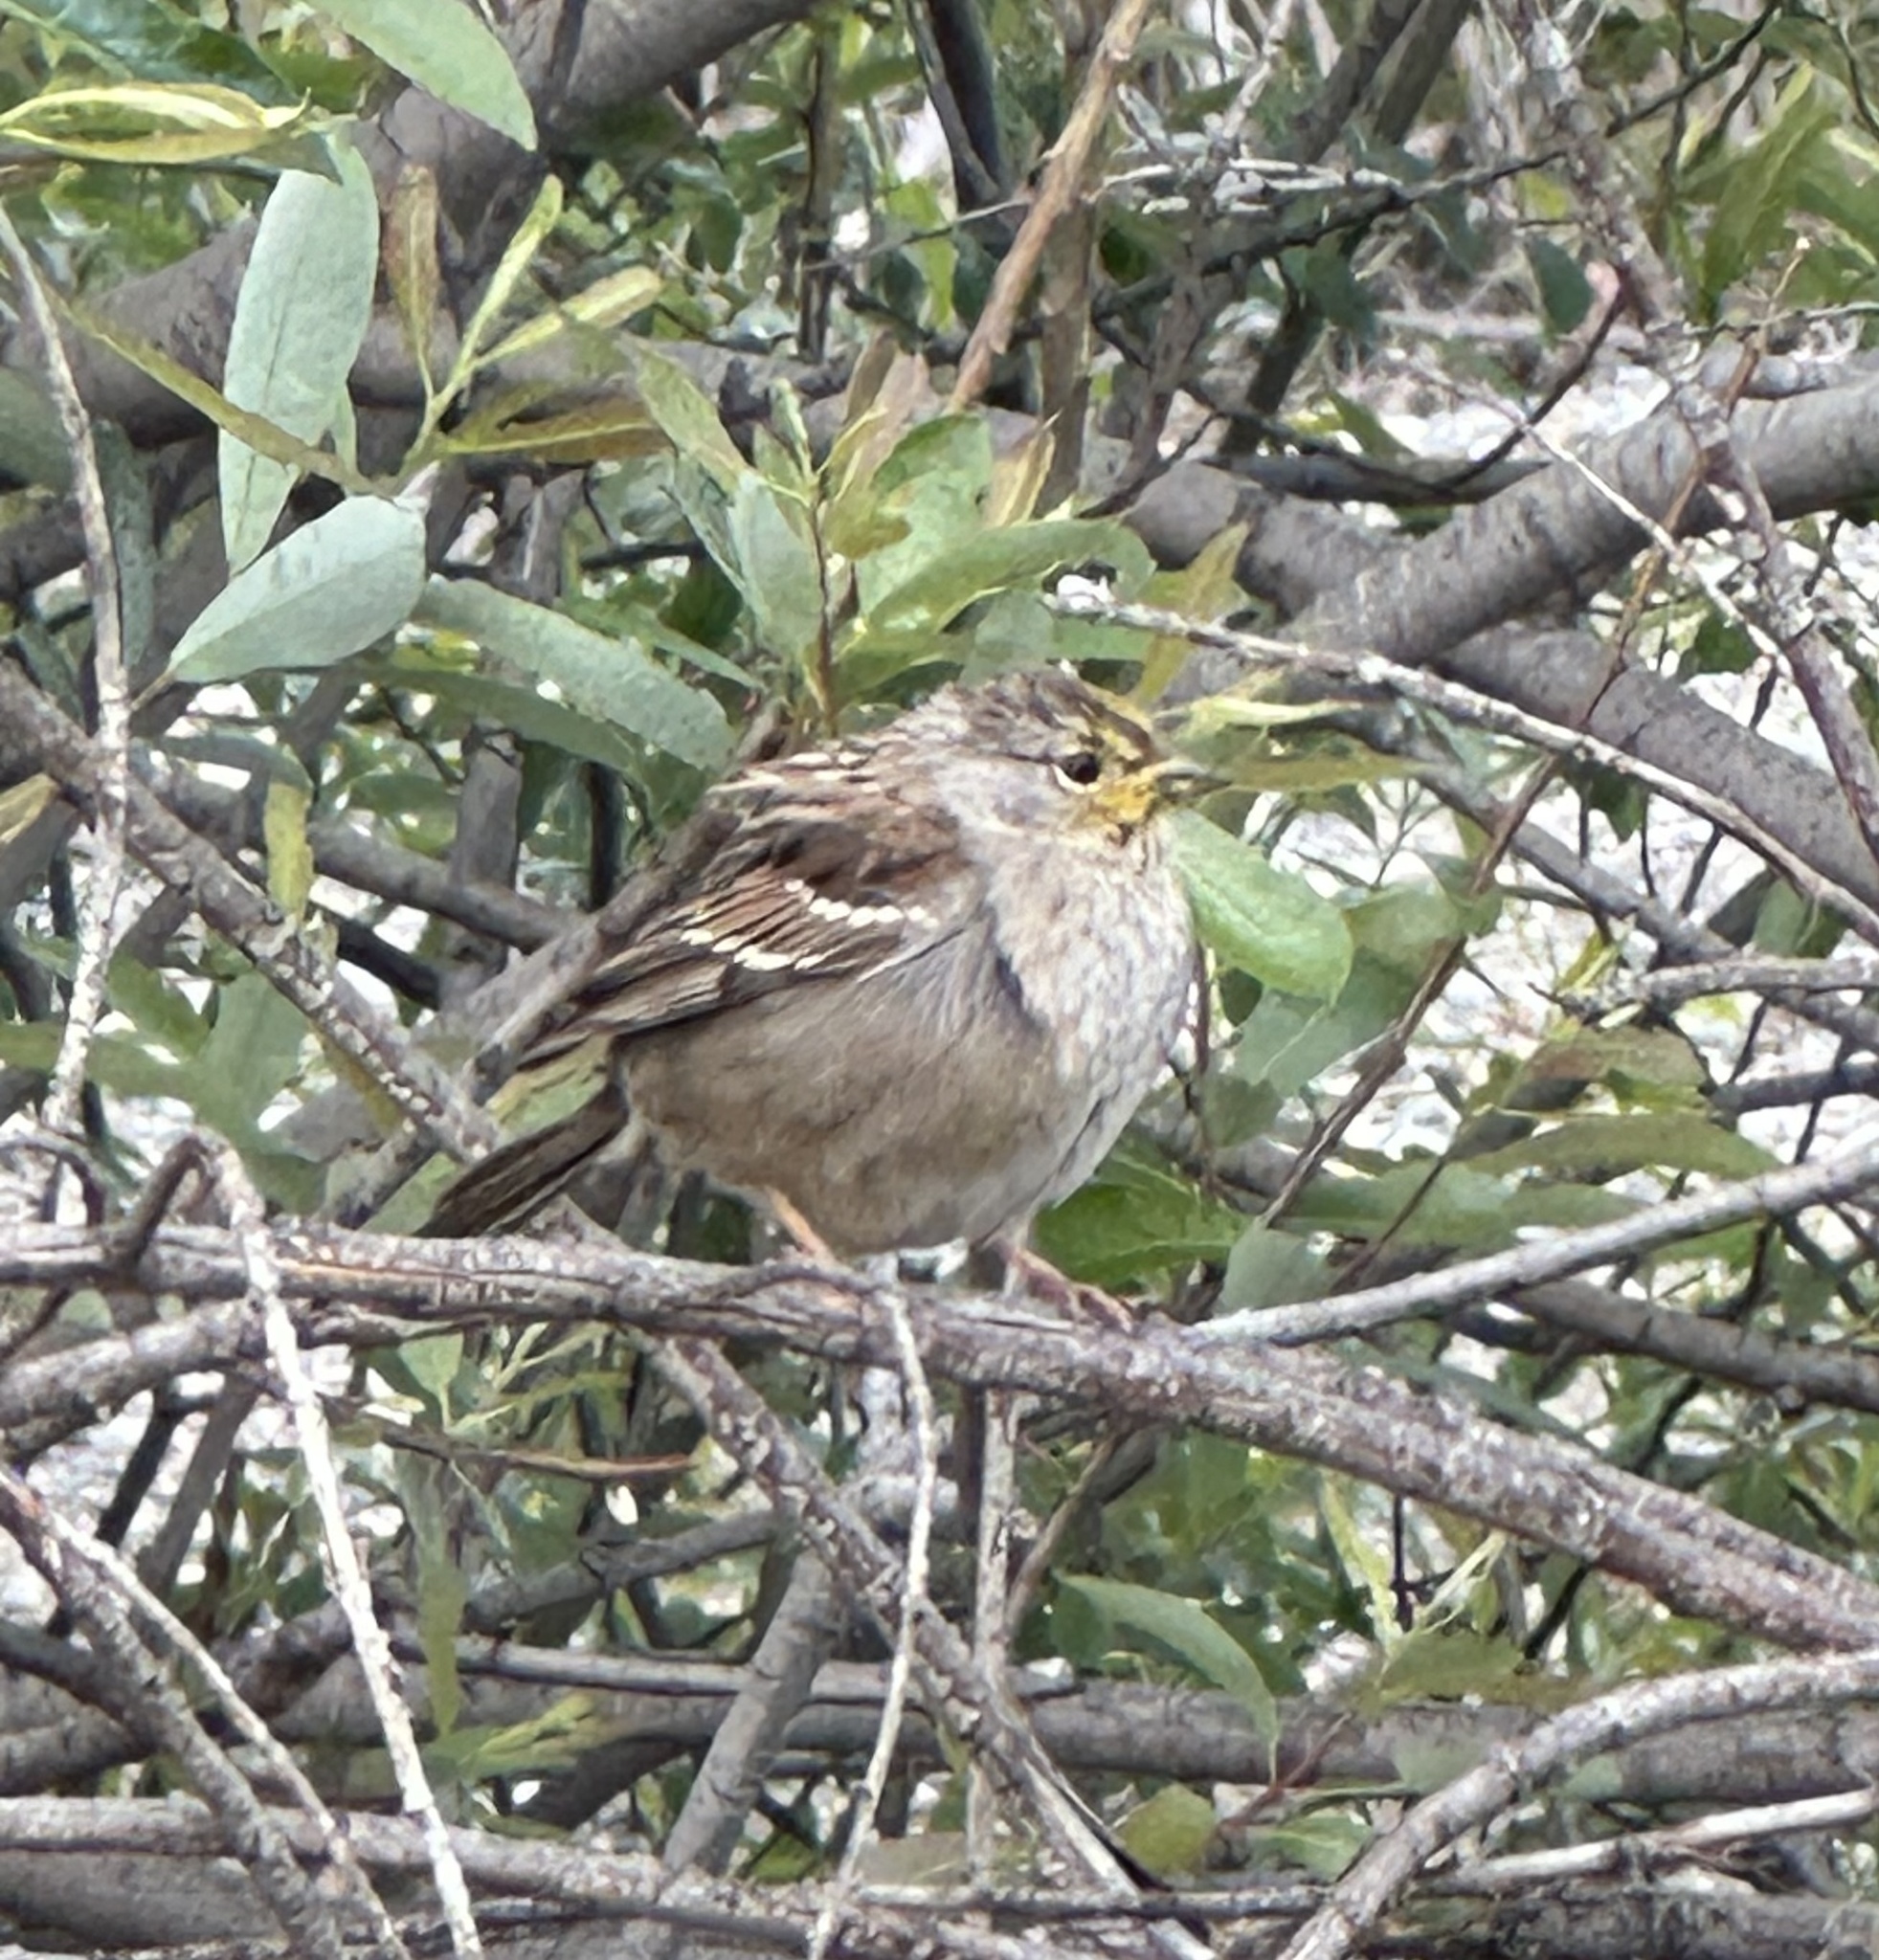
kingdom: Animalia
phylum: Chordata
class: Aves
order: Passeriformes
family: Passerellidae
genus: Zonotrichia
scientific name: Zonotrichia atricapilla
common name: Golden-crowned sparrow
